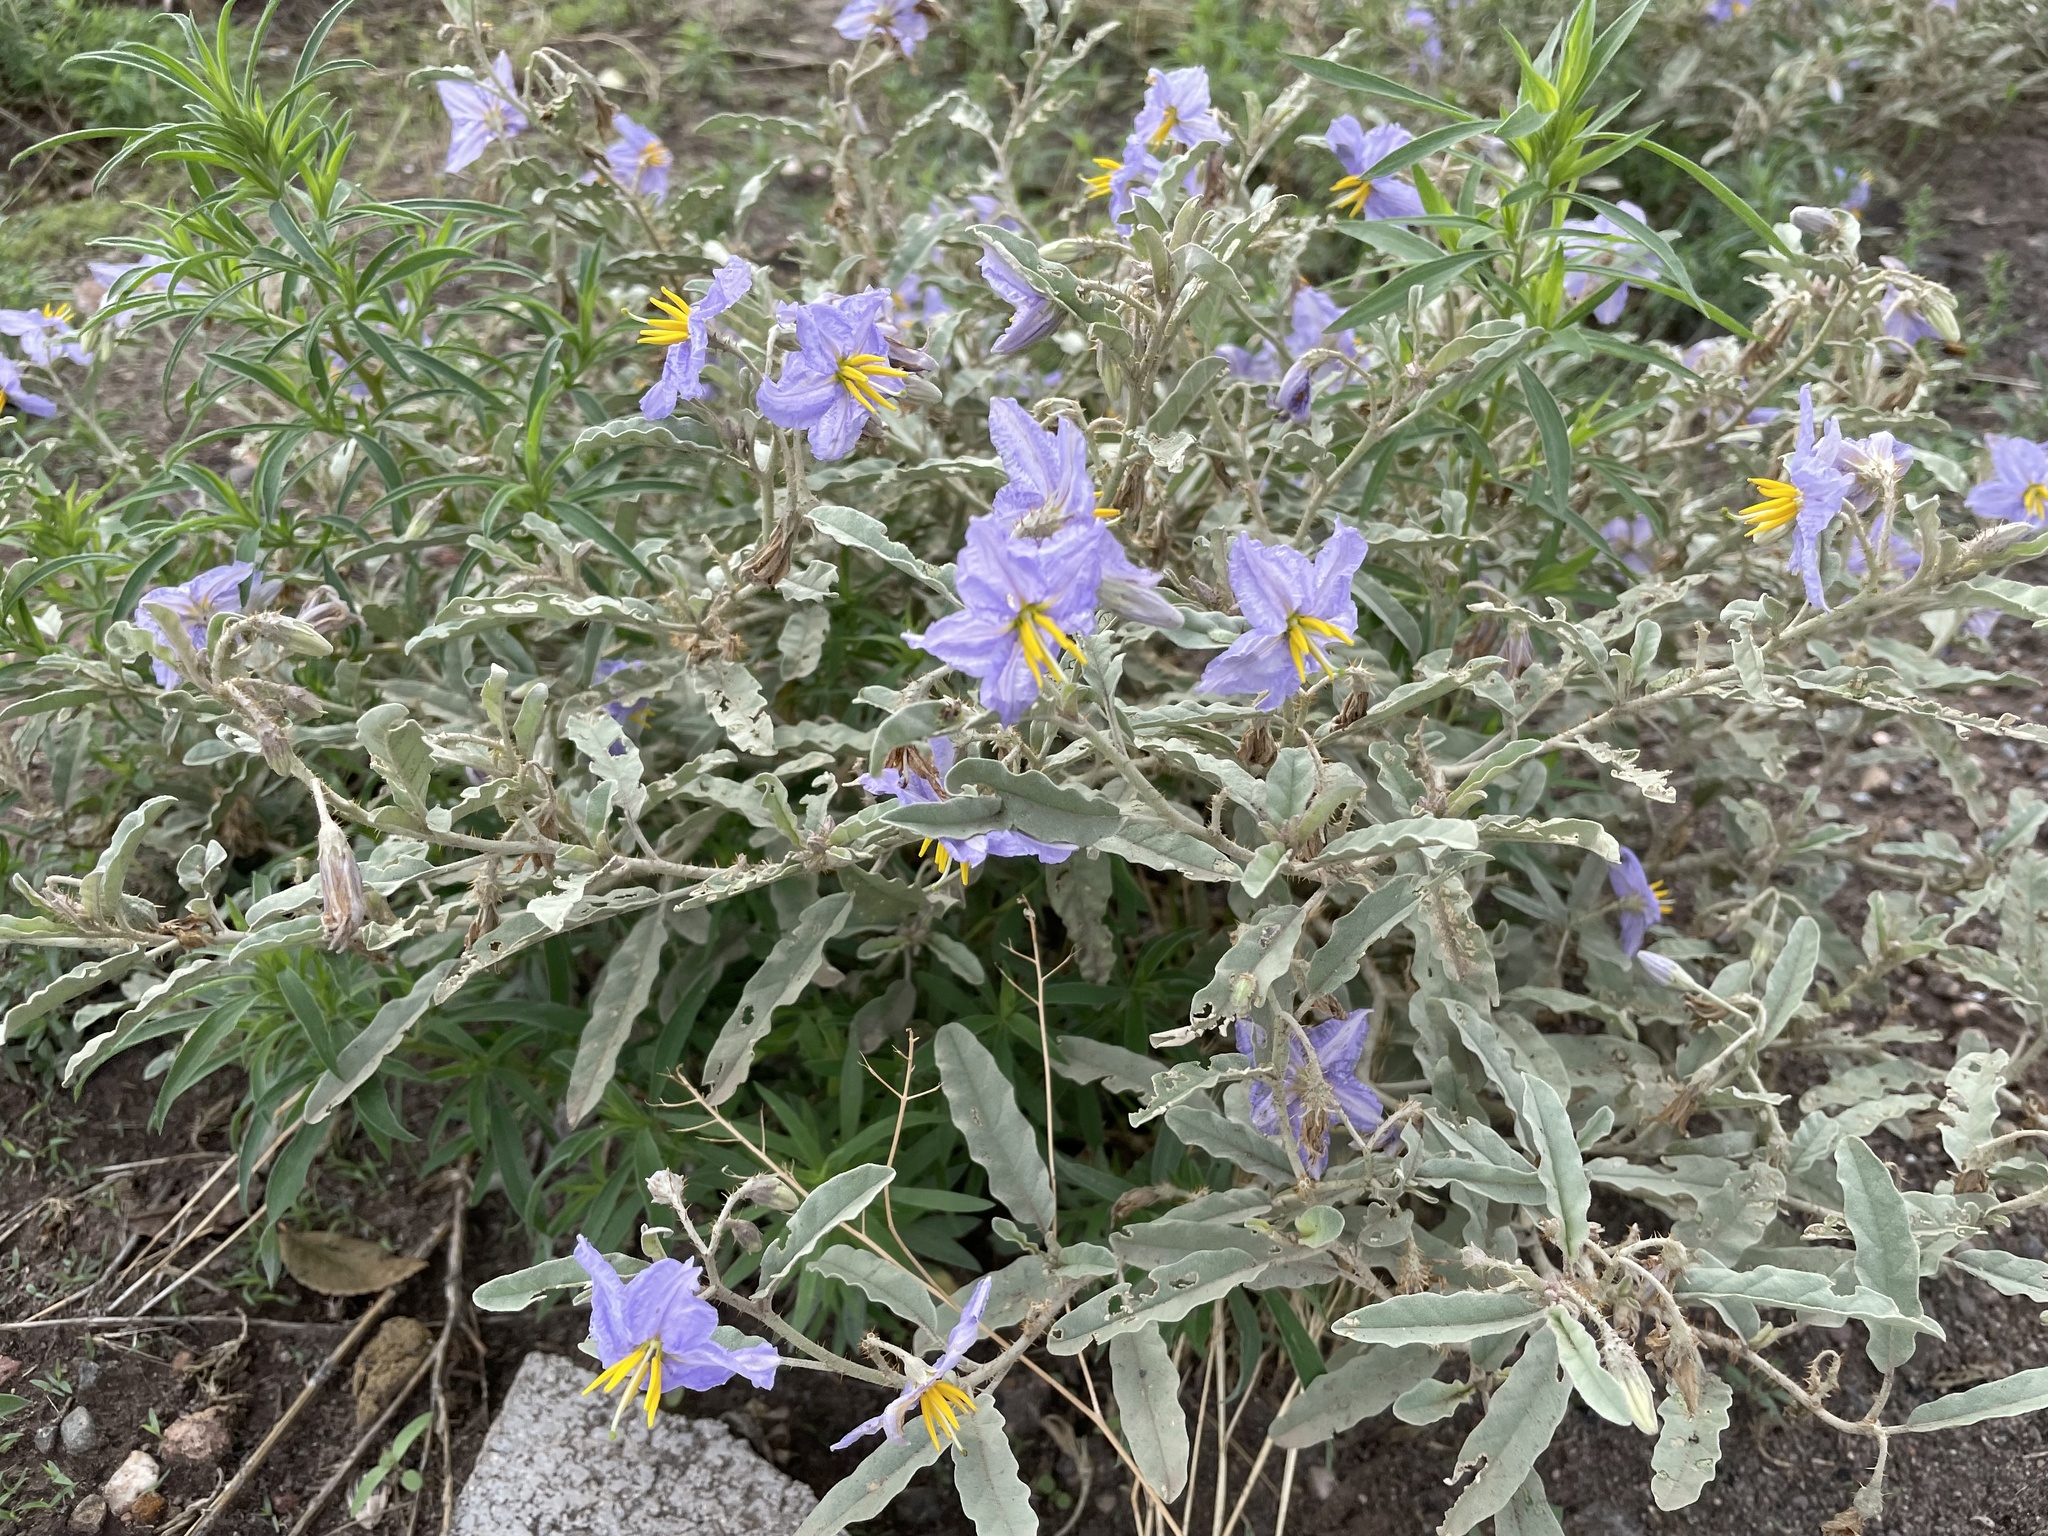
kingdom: Plantae
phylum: Tracheophyta
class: Magnoliopsida
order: Solanales
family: Solanaceae
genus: Solanum
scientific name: Solanum elaeagnifolium
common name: Silverleaf nightshade
